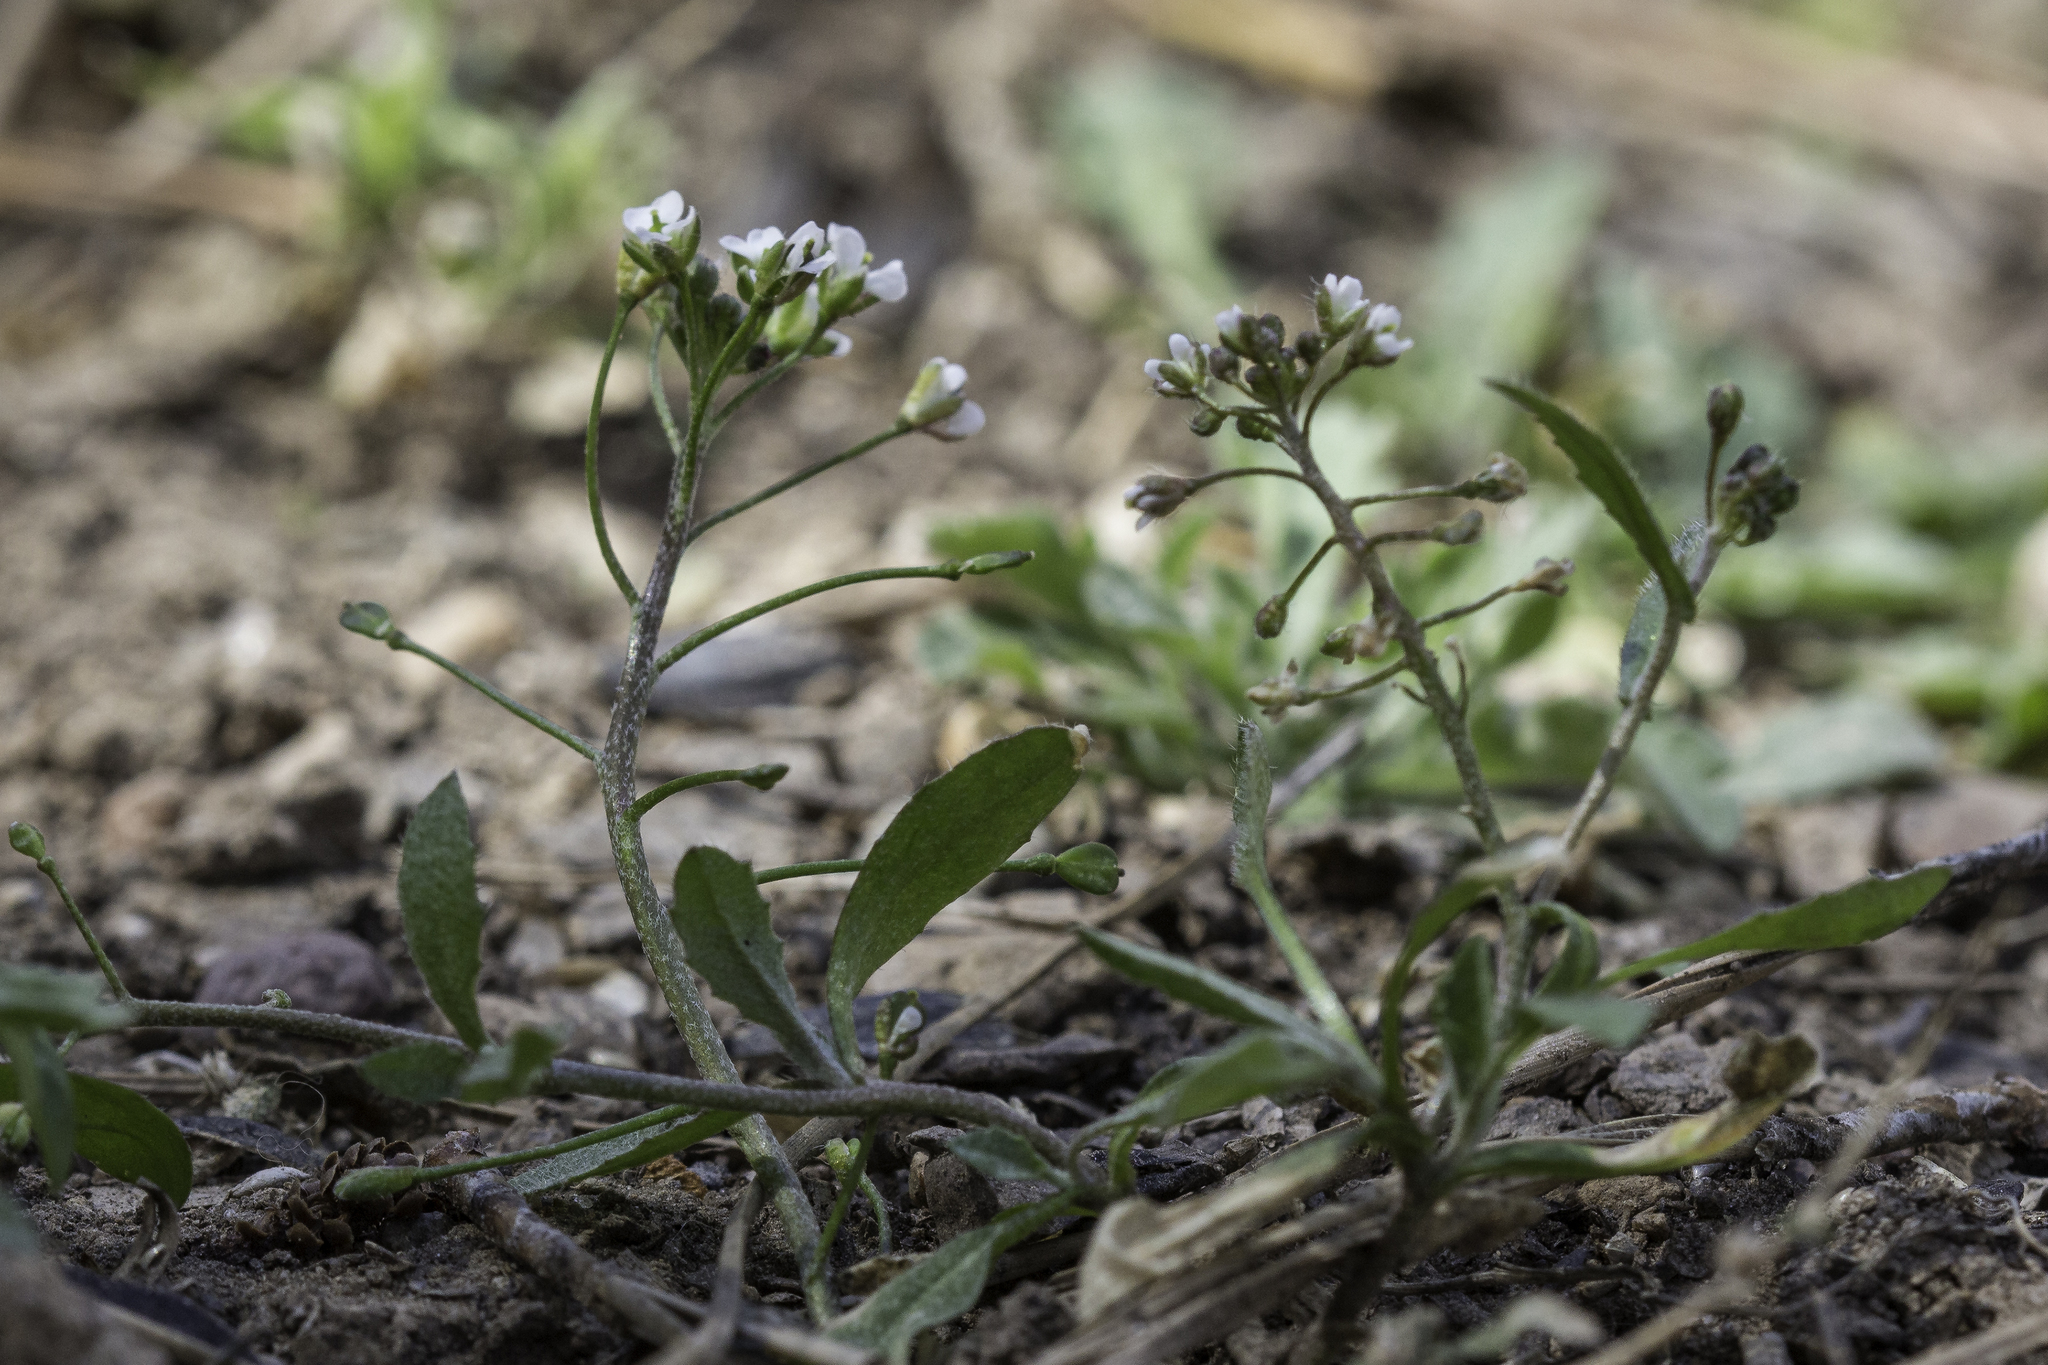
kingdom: Plantae
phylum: Tracheophyta
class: Magnoliopsida
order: Brassicales
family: Brassicaceae
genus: Capsella
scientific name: Capsella bursa-pastoris
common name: Shepherd's purse
